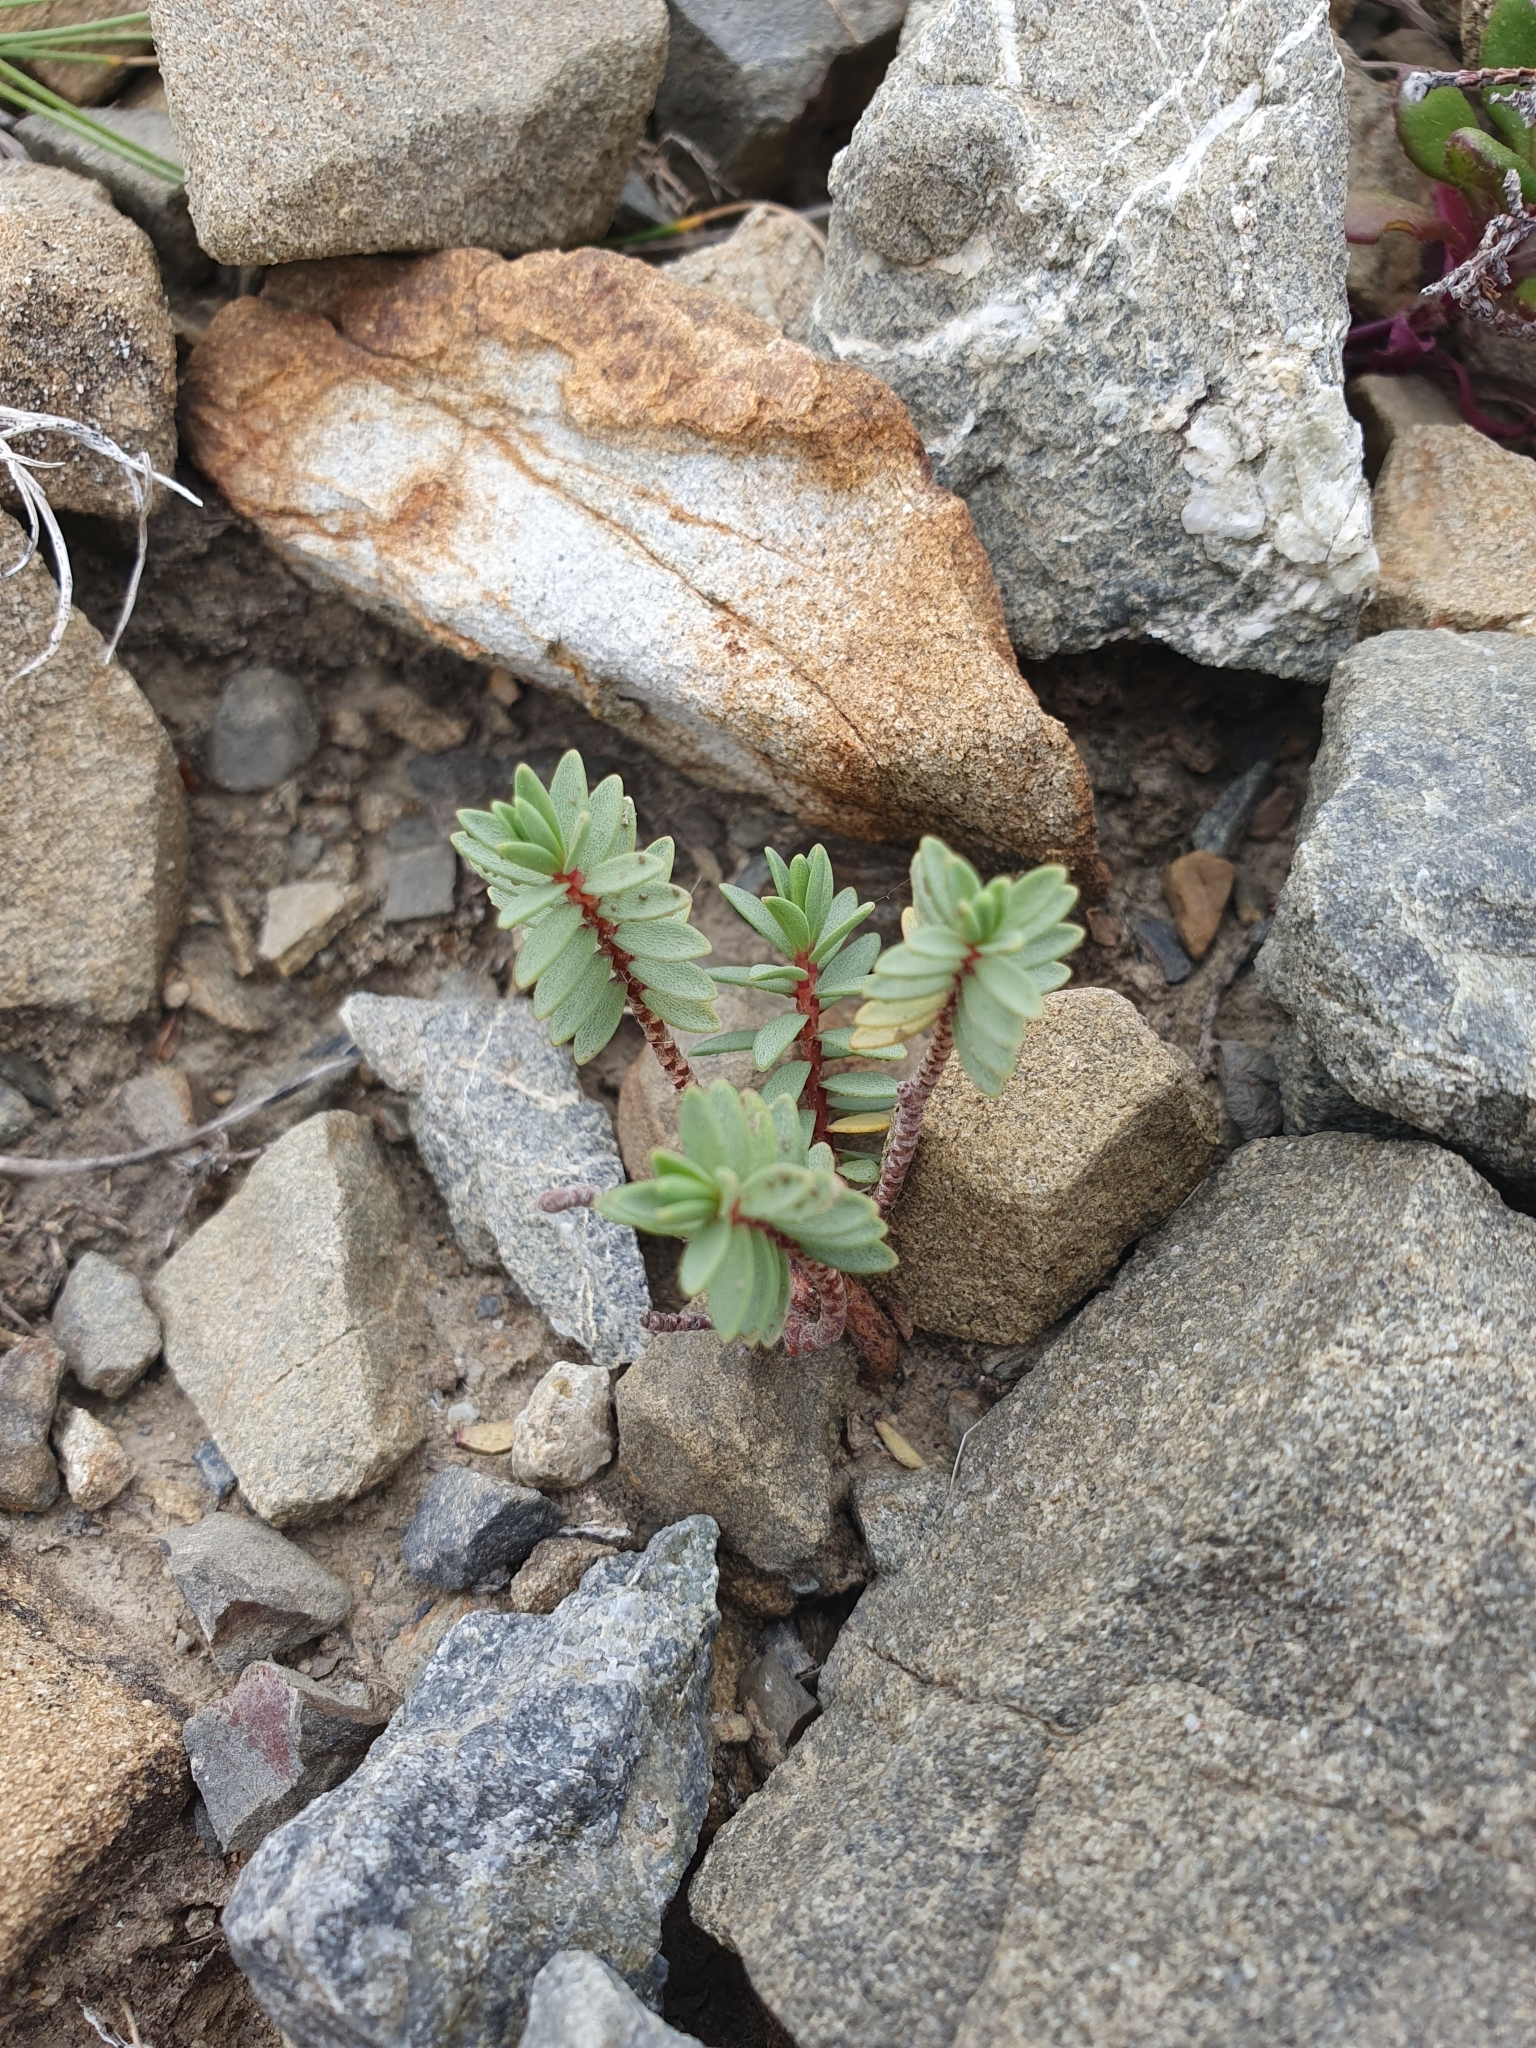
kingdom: Plantae
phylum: Tracheophyta
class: Magnoliopsida
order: Malvales
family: Thymelaeaceae
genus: Pimelea
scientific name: Pimelea villosa
